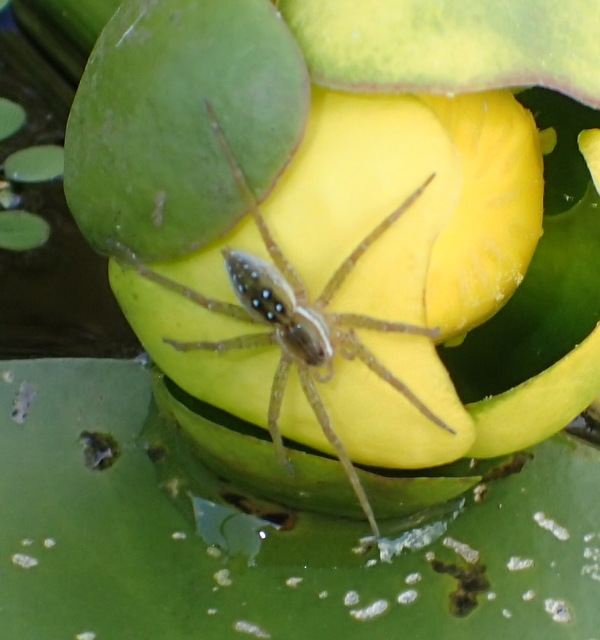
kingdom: Animalia
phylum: Arthropoda
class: Arachnida
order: Araneae
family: Pisauridae
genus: Dolomedes
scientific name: Dolomedes triton
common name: Six-spotted fishing spider
